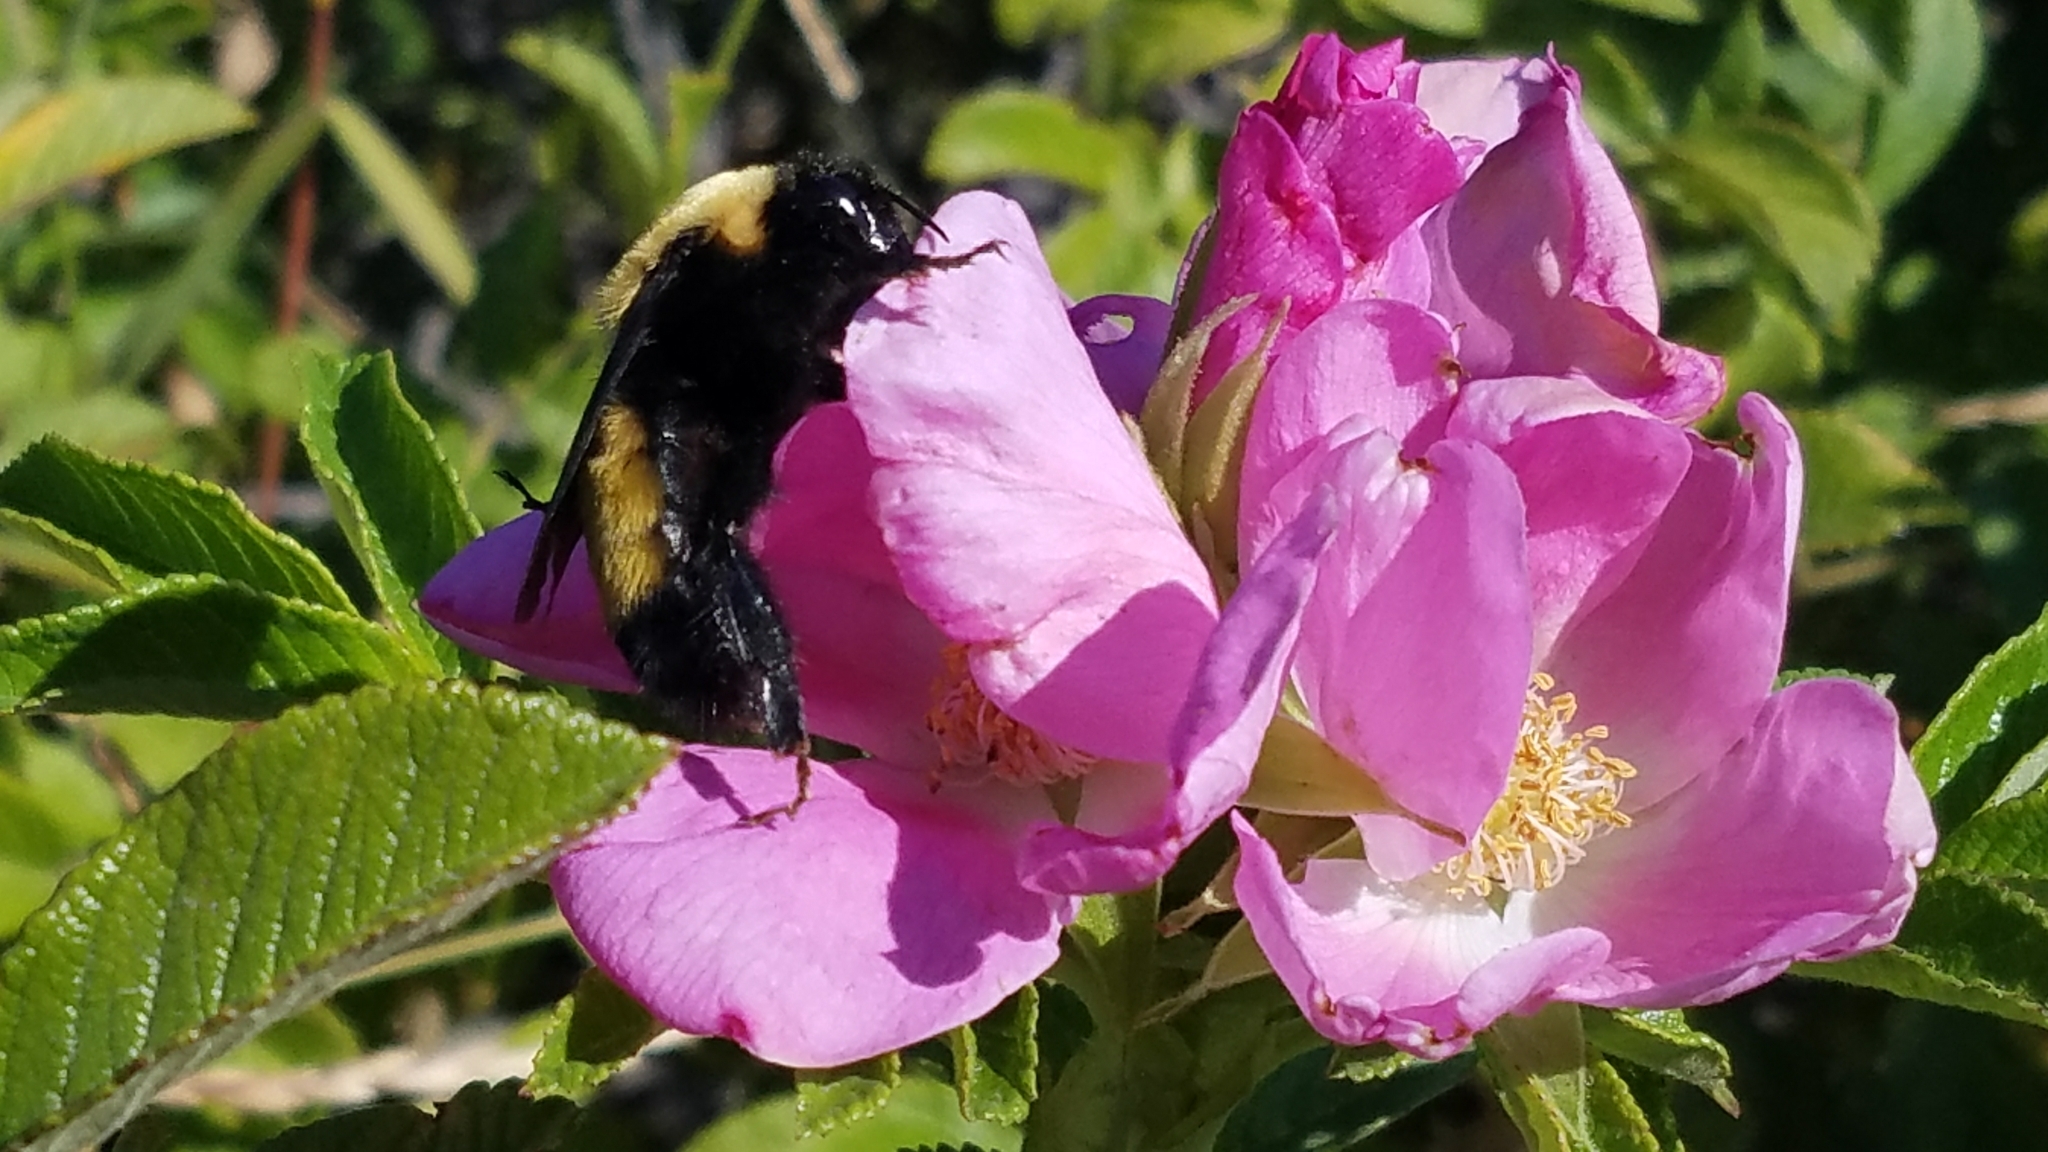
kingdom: Animalia
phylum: Arthropoda
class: Insecta
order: Hymenoptera
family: Apidae
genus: Bombus
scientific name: Bombus nevadensis
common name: Nevada bumble bee
